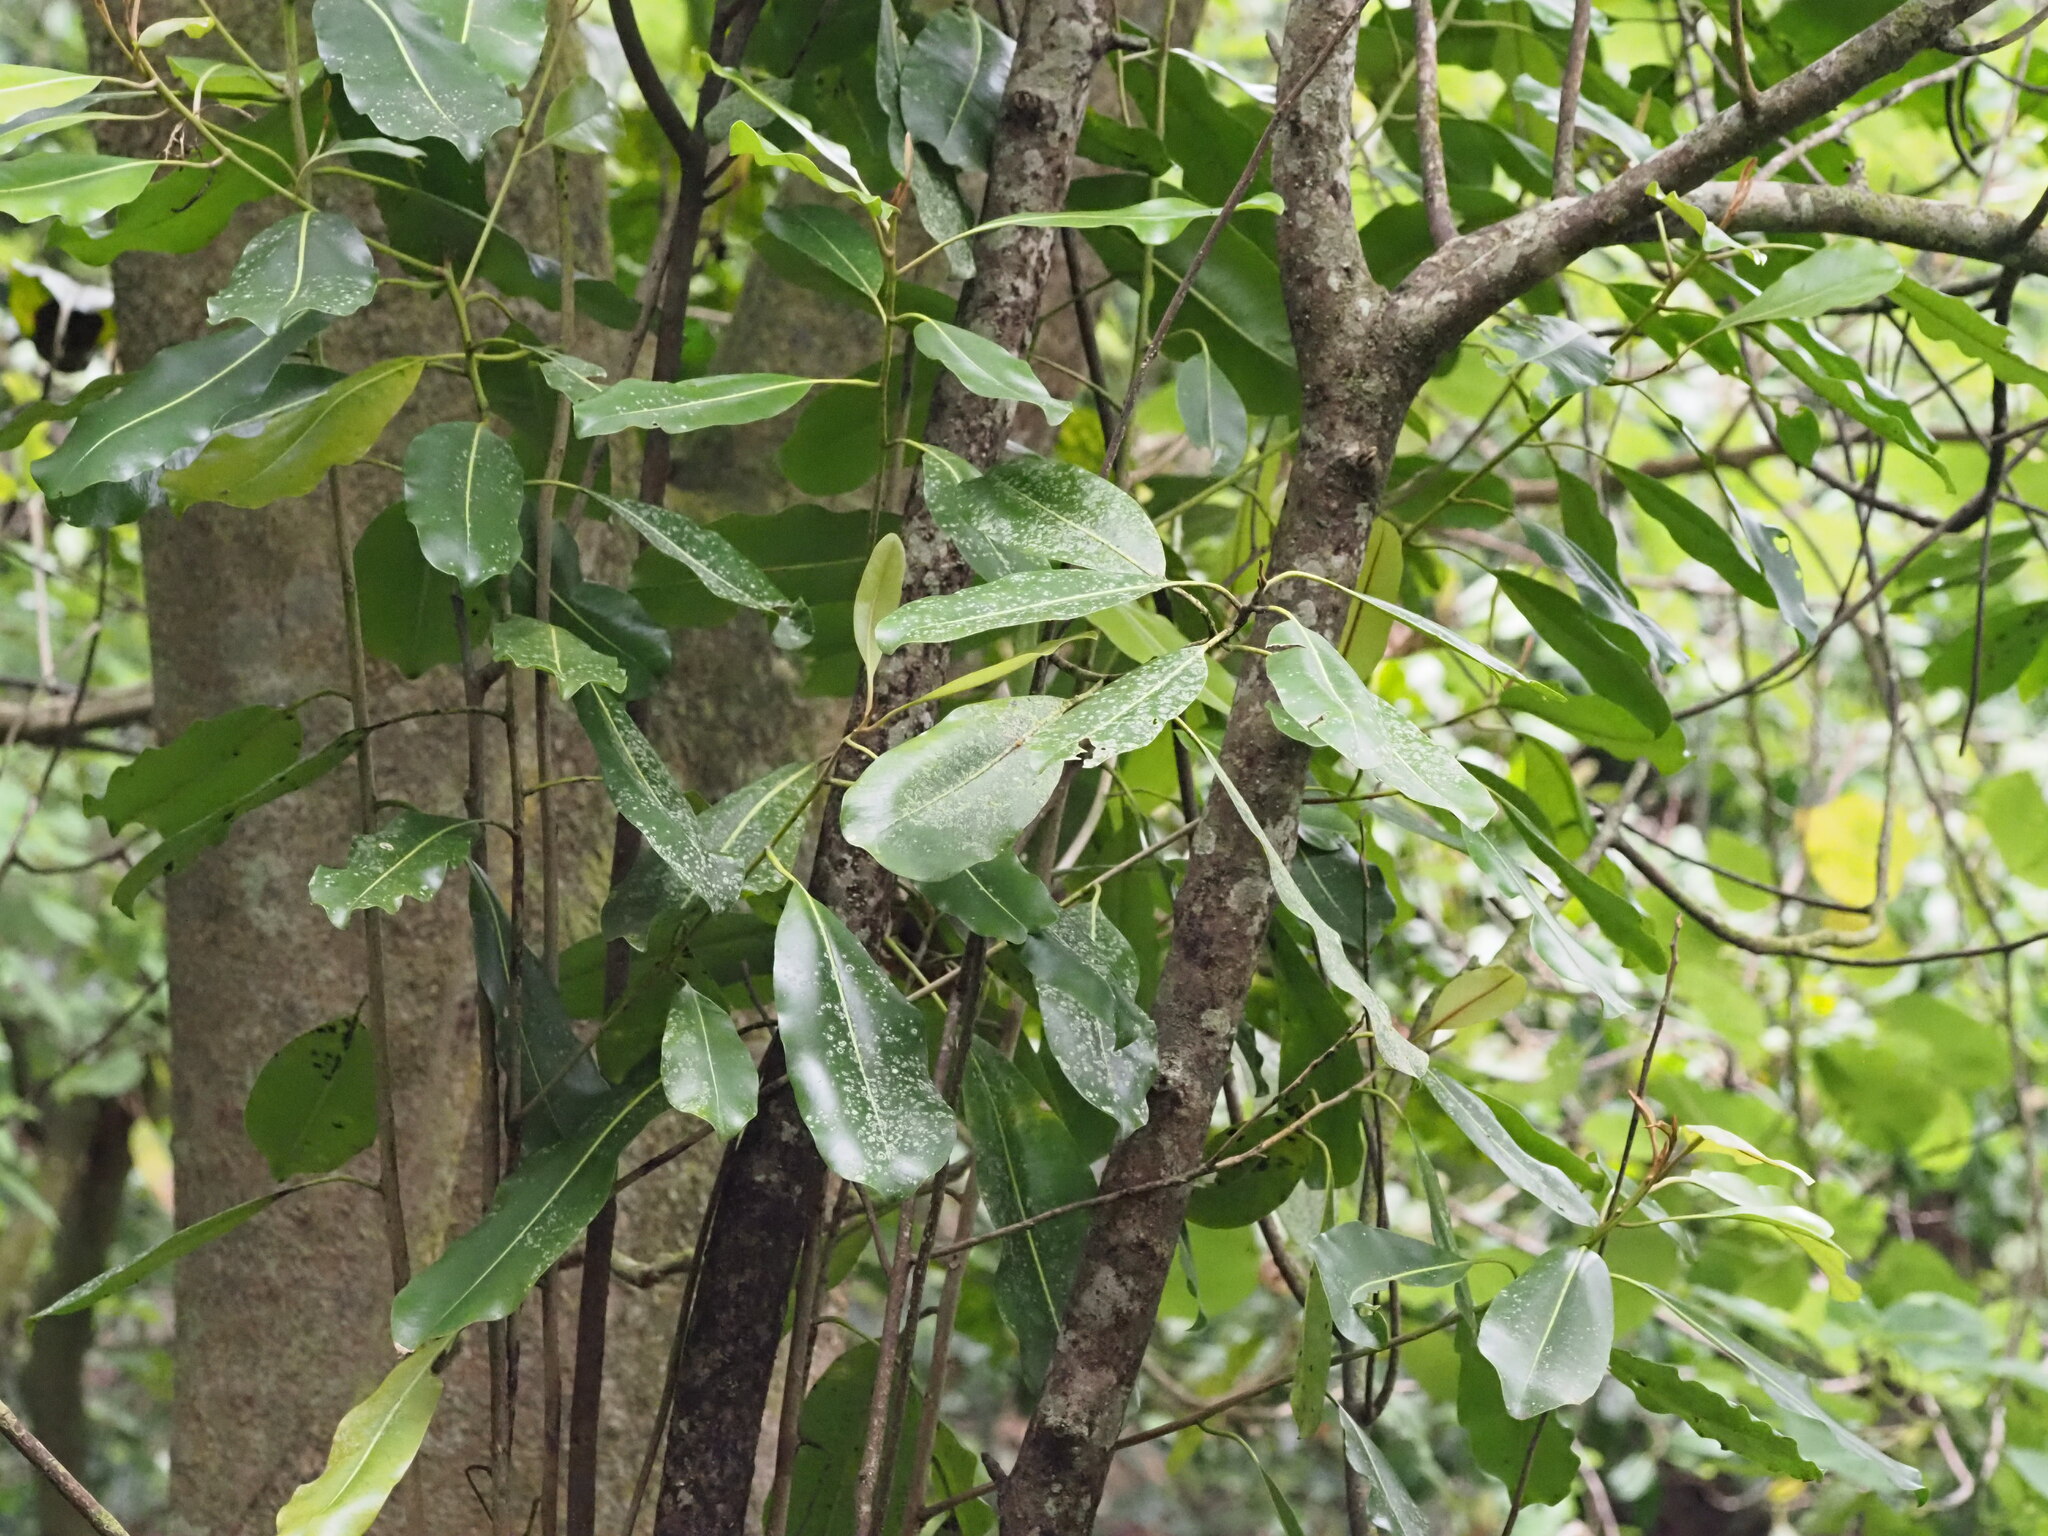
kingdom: Plantae
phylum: Tracheophyta
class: Magnoliopsida
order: Ericales
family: Sapotaceae
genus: Planchonella
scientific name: Planchonella sandwicensis
